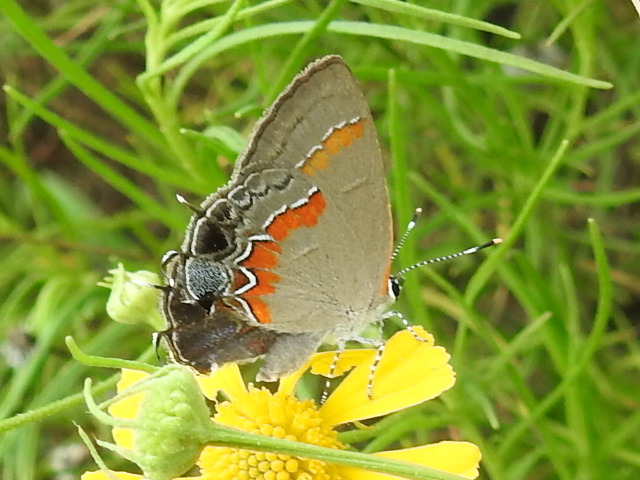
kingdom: Animalia
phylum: Arthropoda
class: Insecta
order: Lepidoptera
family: Lycaenidae
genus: Calycopis
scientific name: Calycopis cecrops
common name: Red-banded hairstreak
